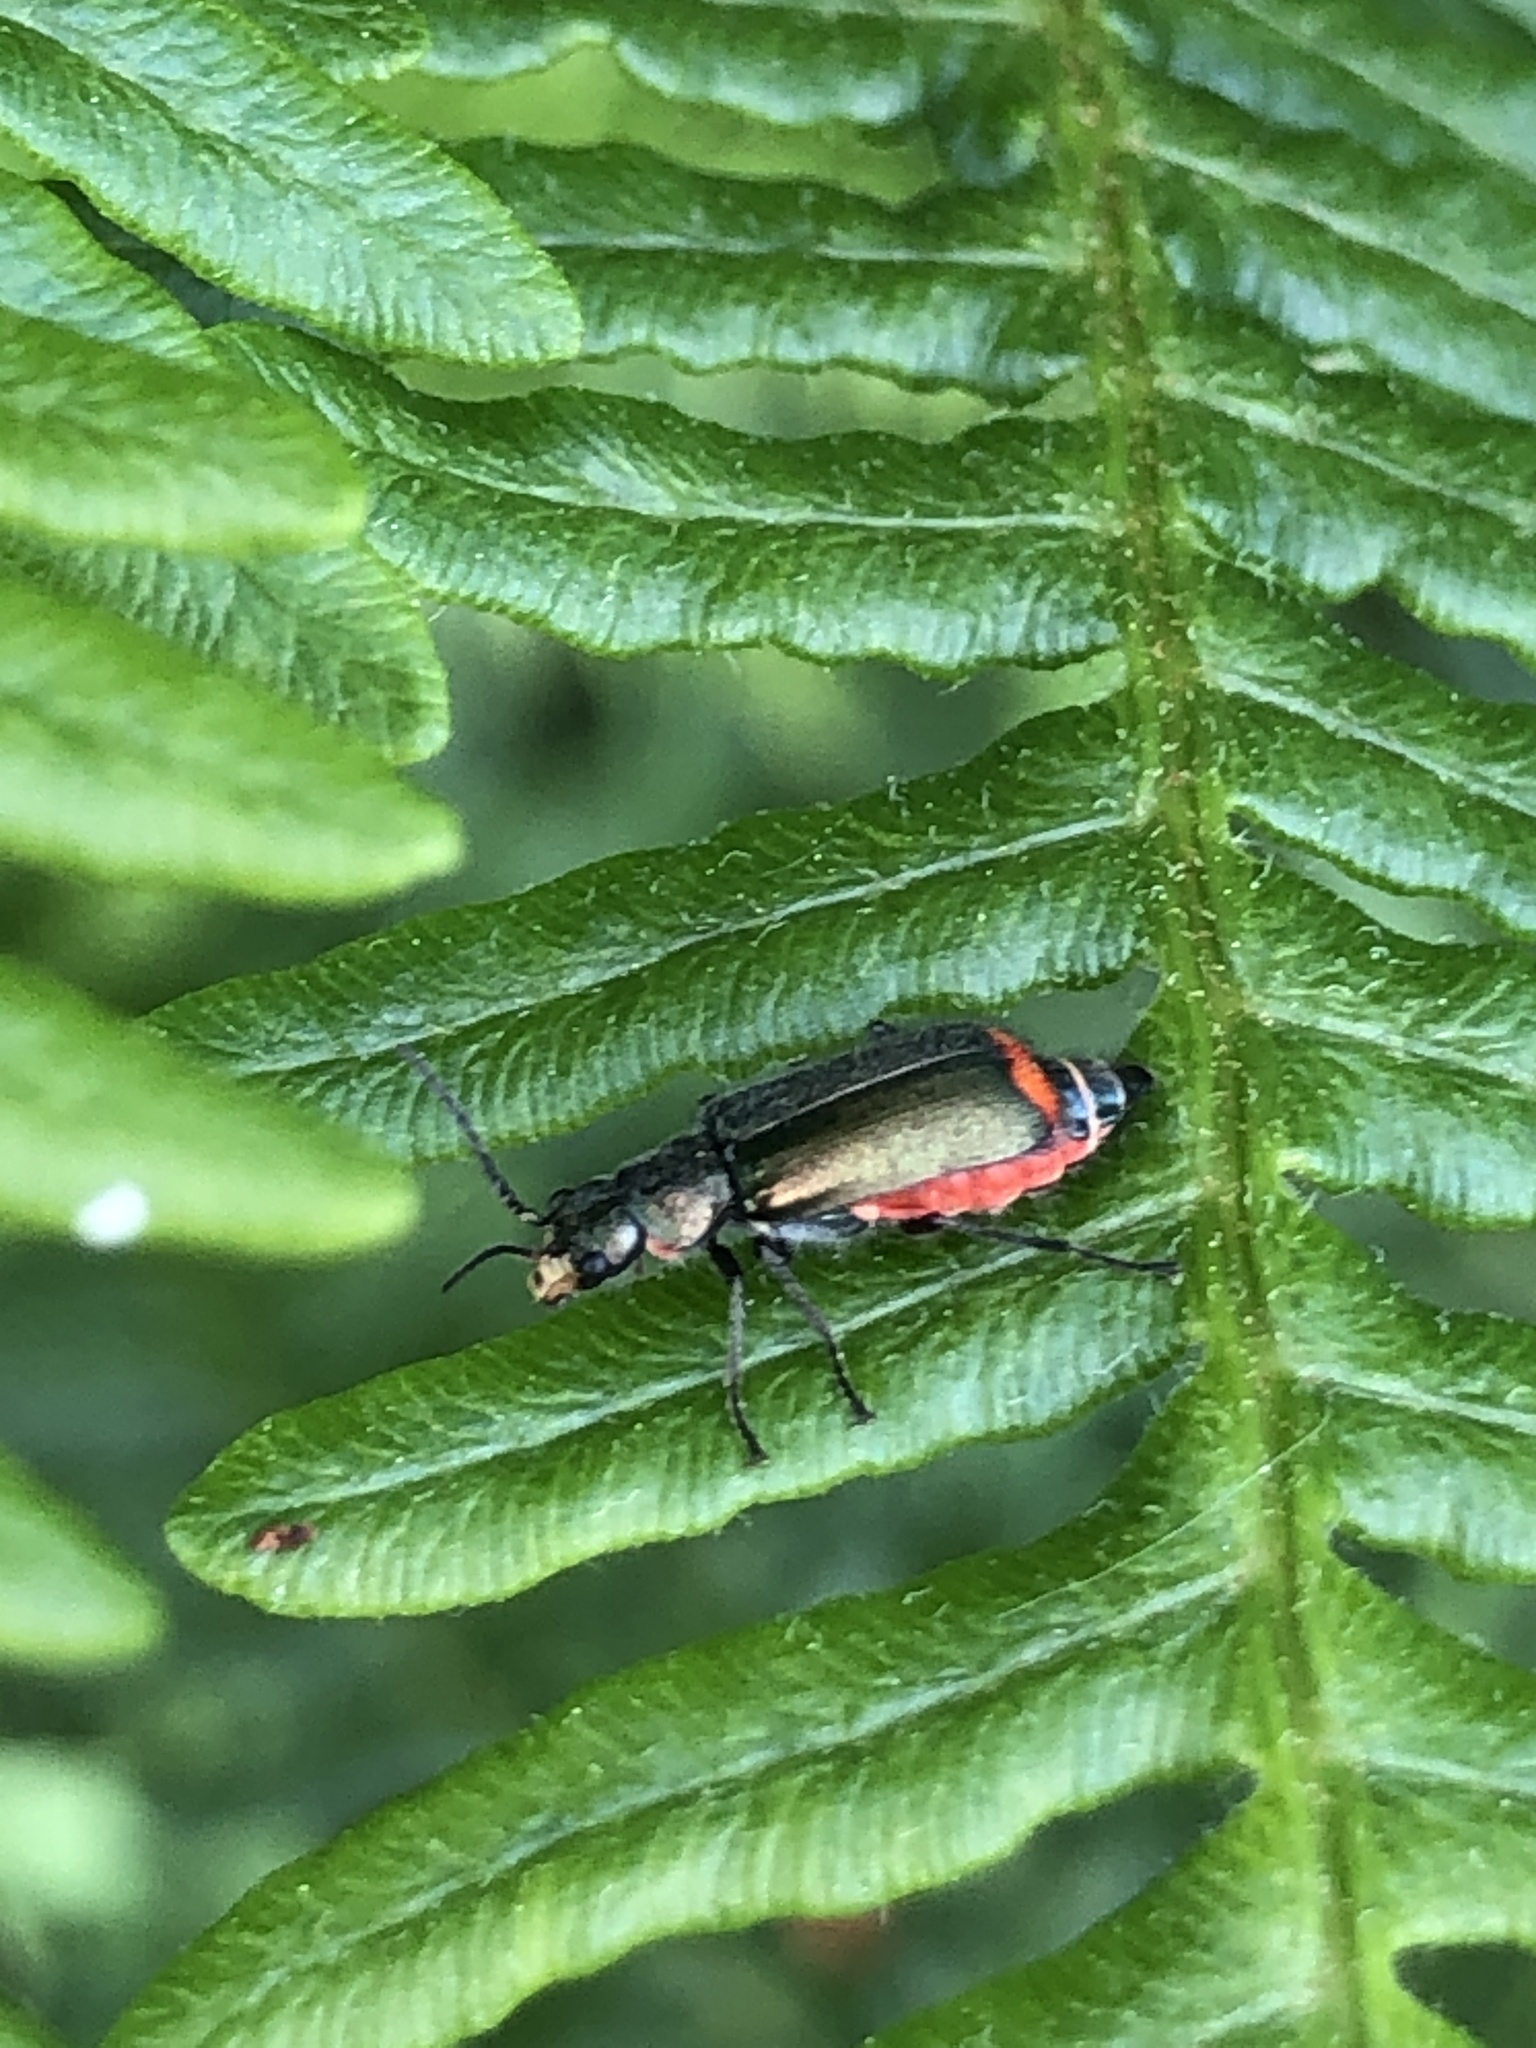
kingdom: Animalia
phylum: Arthropoda
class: Insecta
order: Coleoptera
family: Melyridae
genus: Malachius
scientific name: Malachius bipustulatus
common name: Malachite beetle
